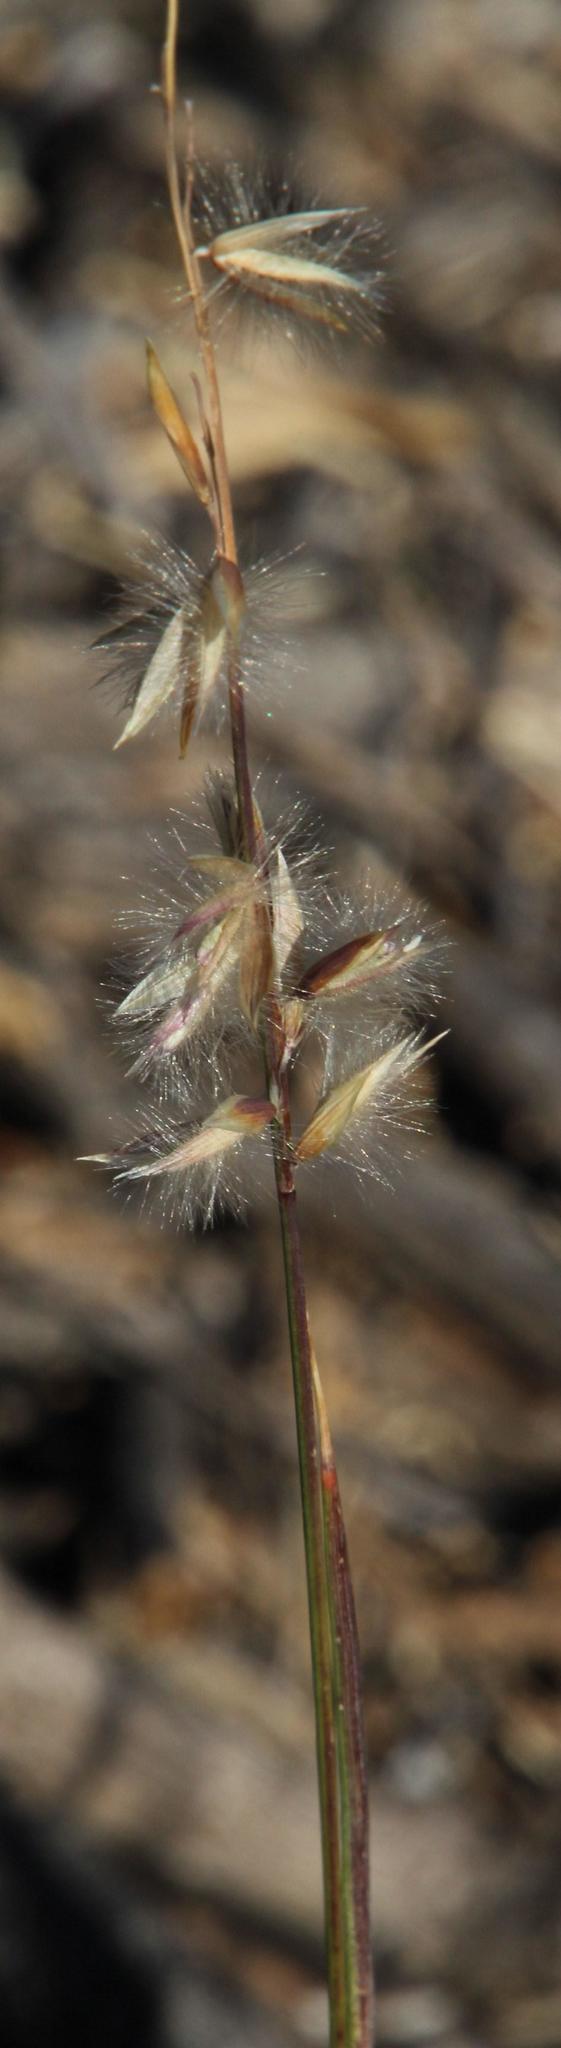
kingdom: Plantae
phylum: Tracheophyta
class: Liliopsida
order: Poales
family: Poaceae
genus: Melica
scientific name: Melica racemosa
